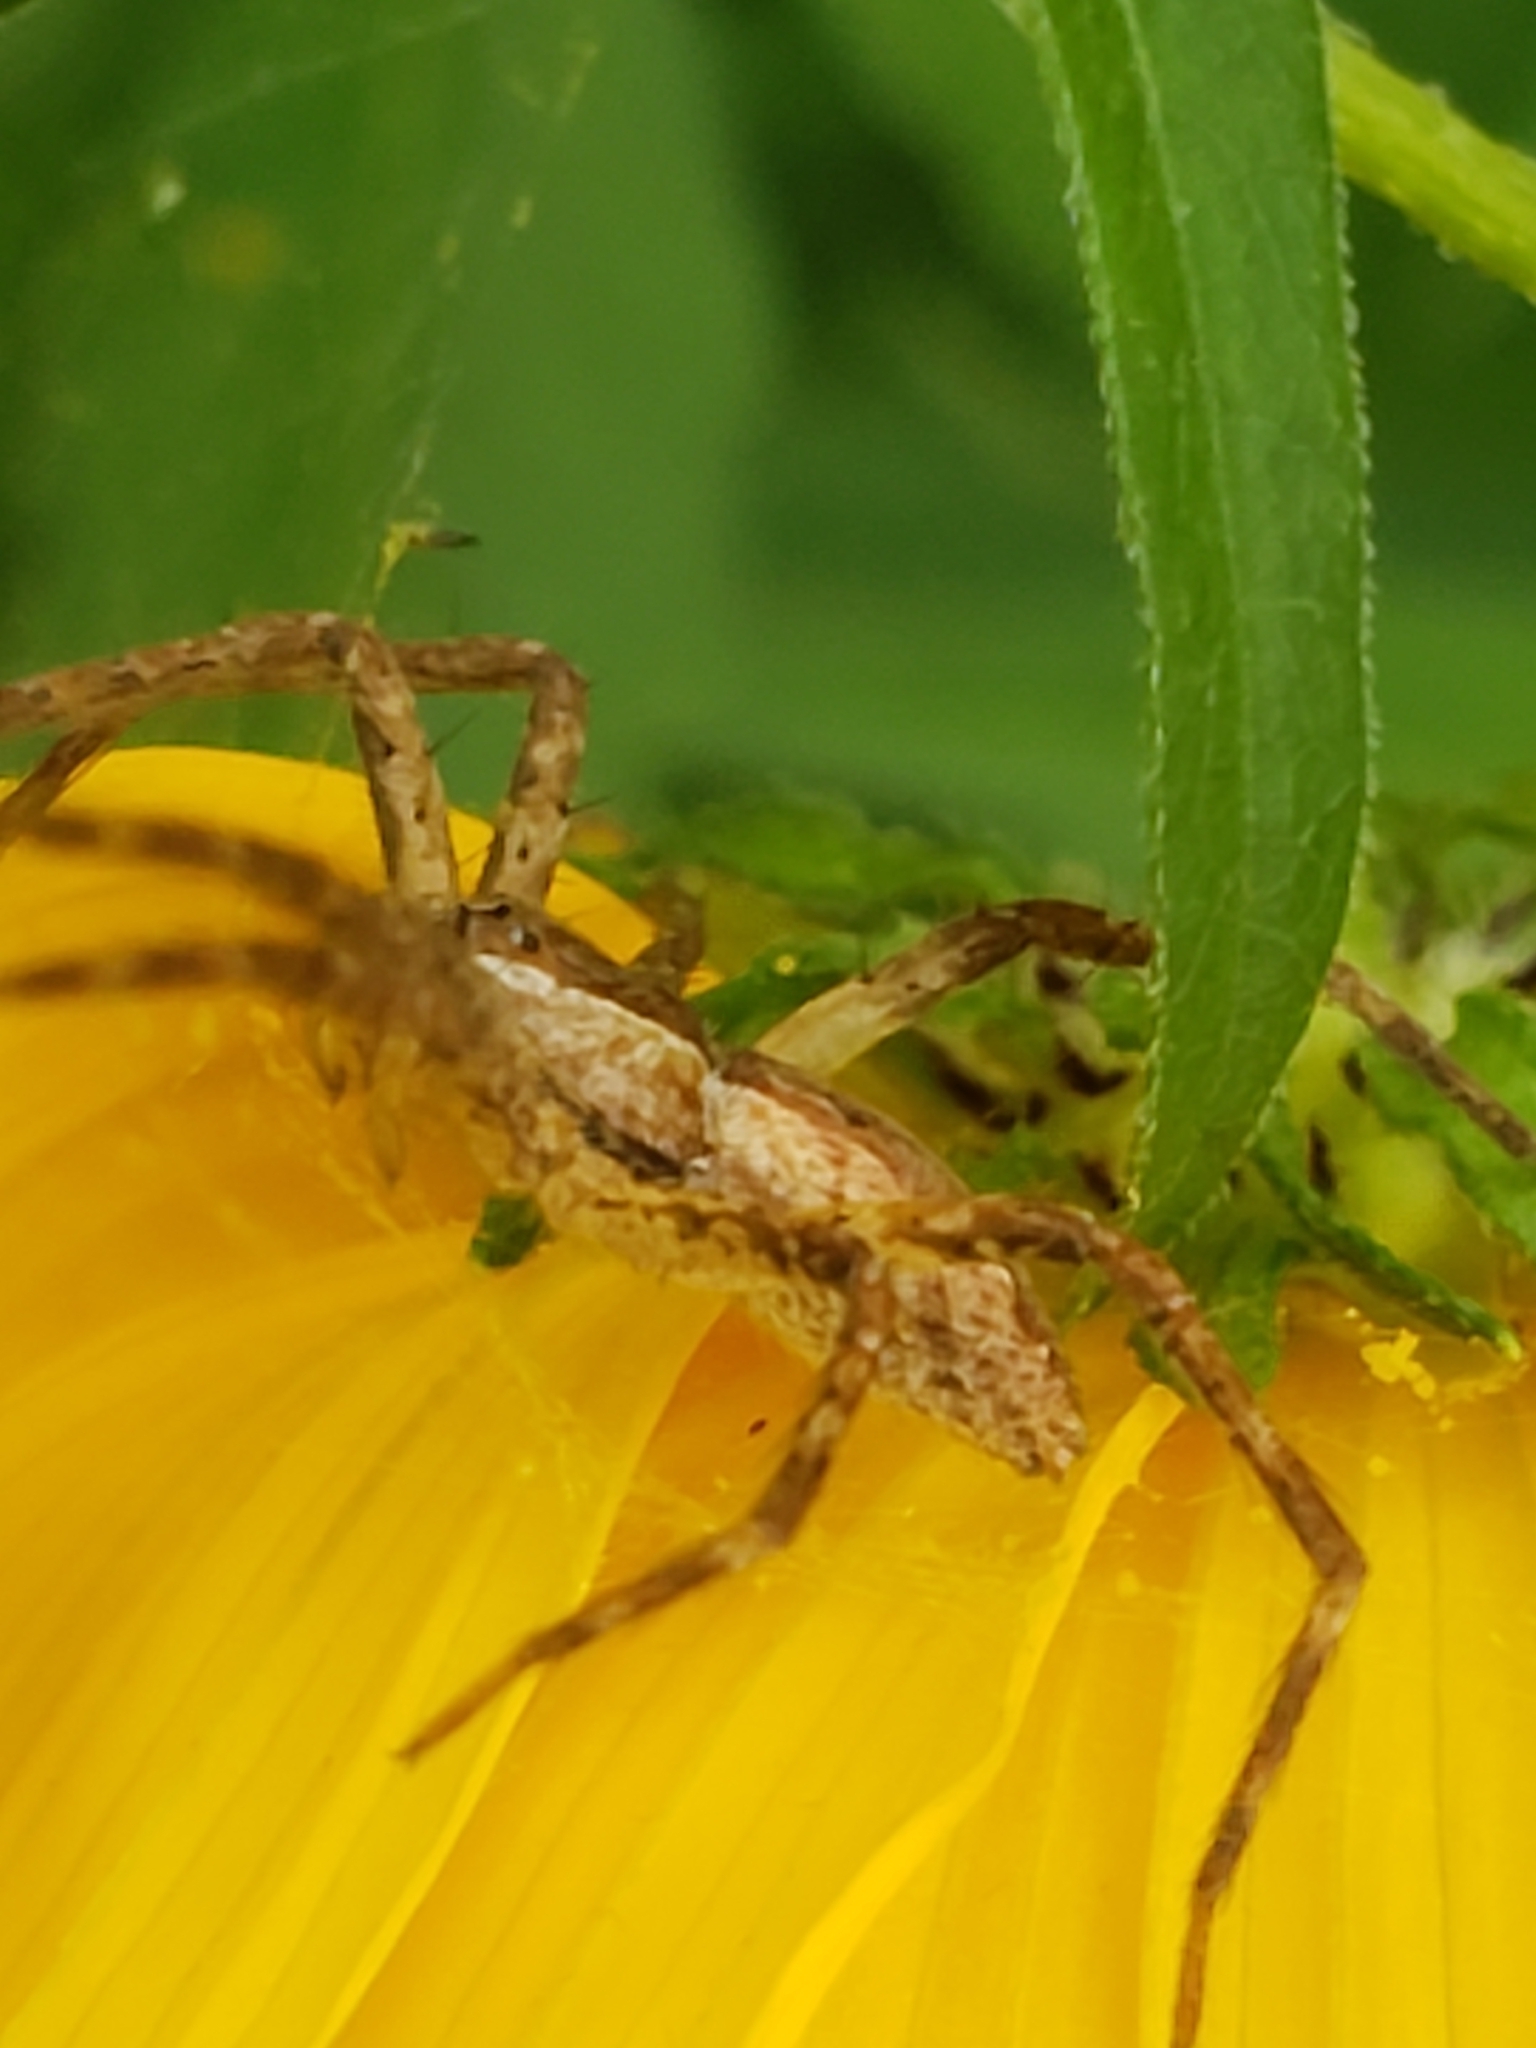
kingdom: Animalia
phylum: Arthropoda
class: Arachnida
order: Araneae
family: Pisauridae
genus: Pisaurina
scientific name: Pisaurina mira
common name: American nursery web spider
